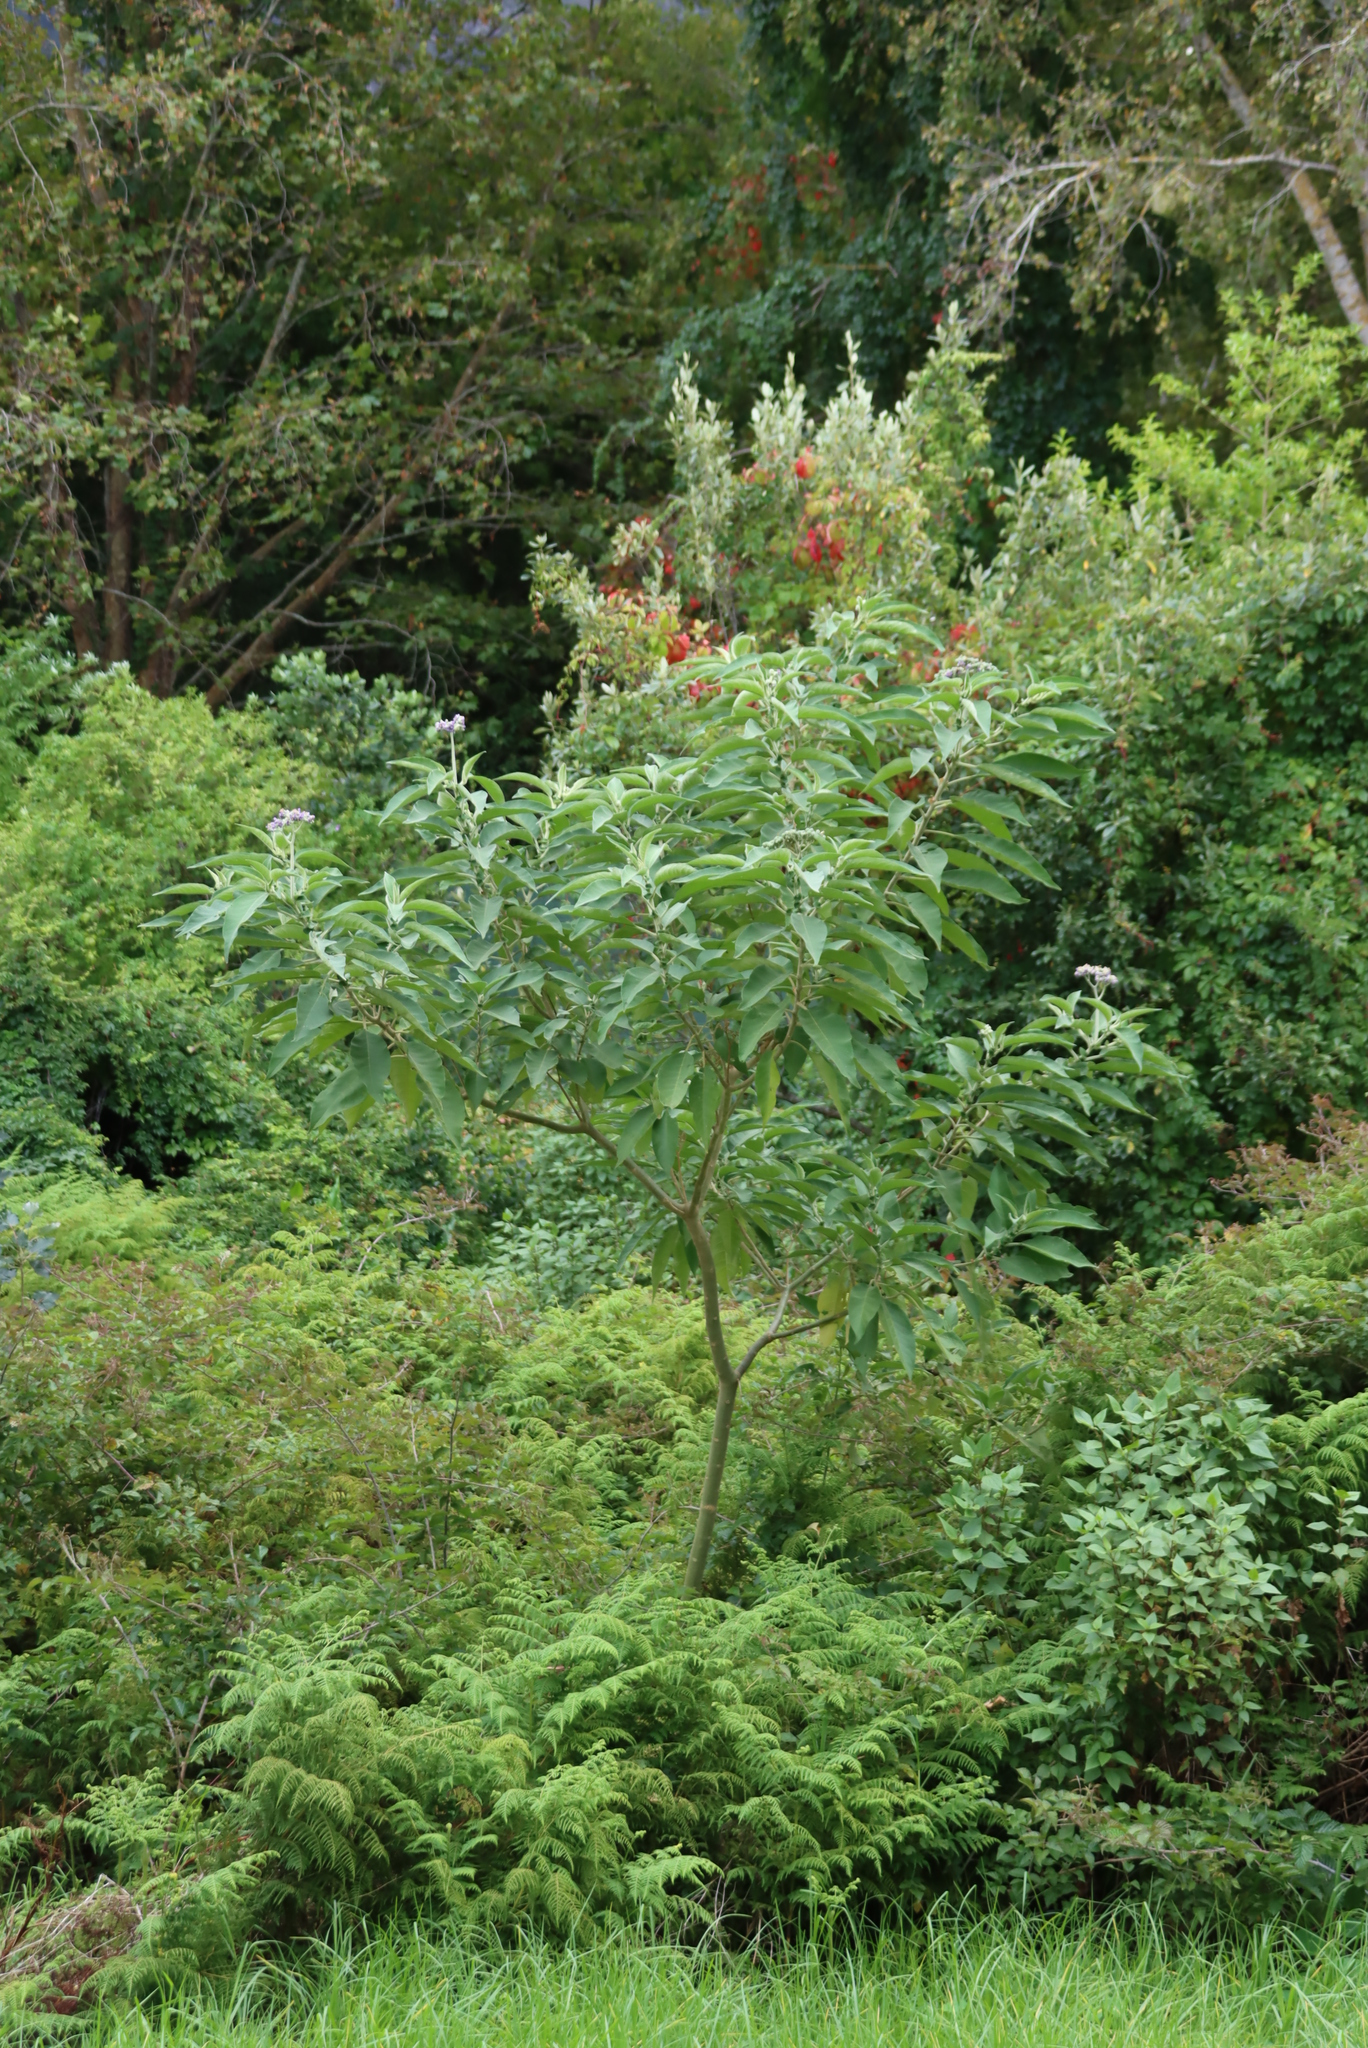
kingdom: Plantae
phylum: Tracheophyta
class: Magnoliopsida
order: Solanales
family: Solanaceae
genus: Solanum
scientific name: Solanum mauritianum
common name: Earleaf nightshade
